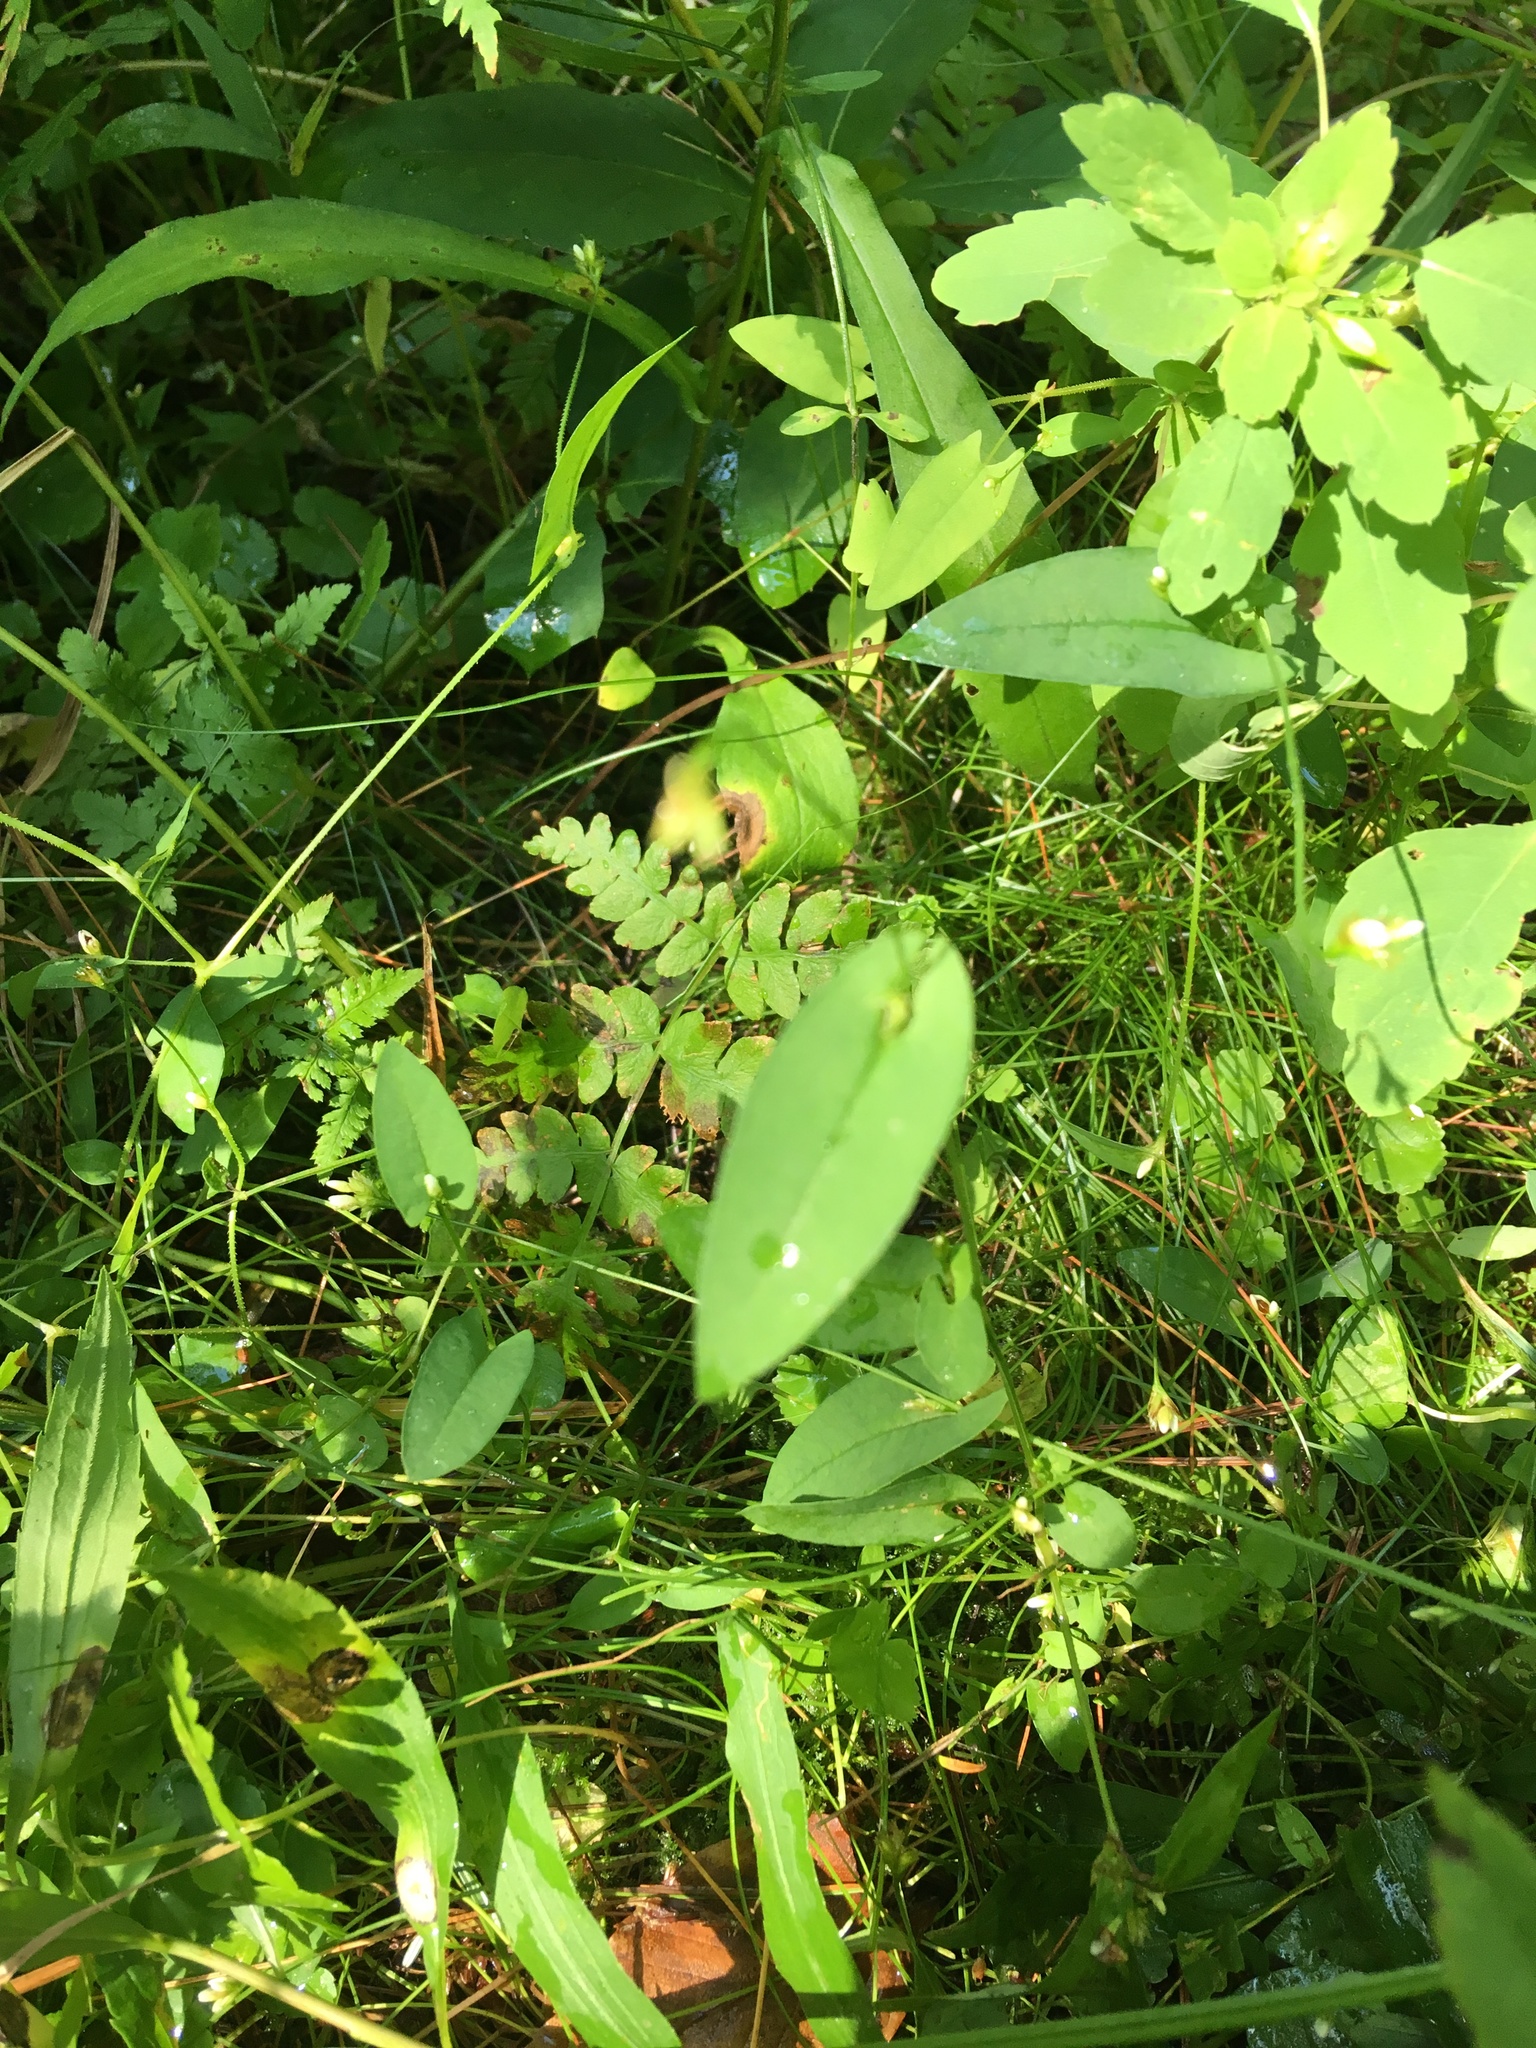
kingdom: Plantae
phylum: Tracheophyta
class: Magnoliopsida
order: Caryophyllales
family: Polygonaceae
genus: Persicaria
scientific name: Persicaria sagittata
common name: American tearthumb
